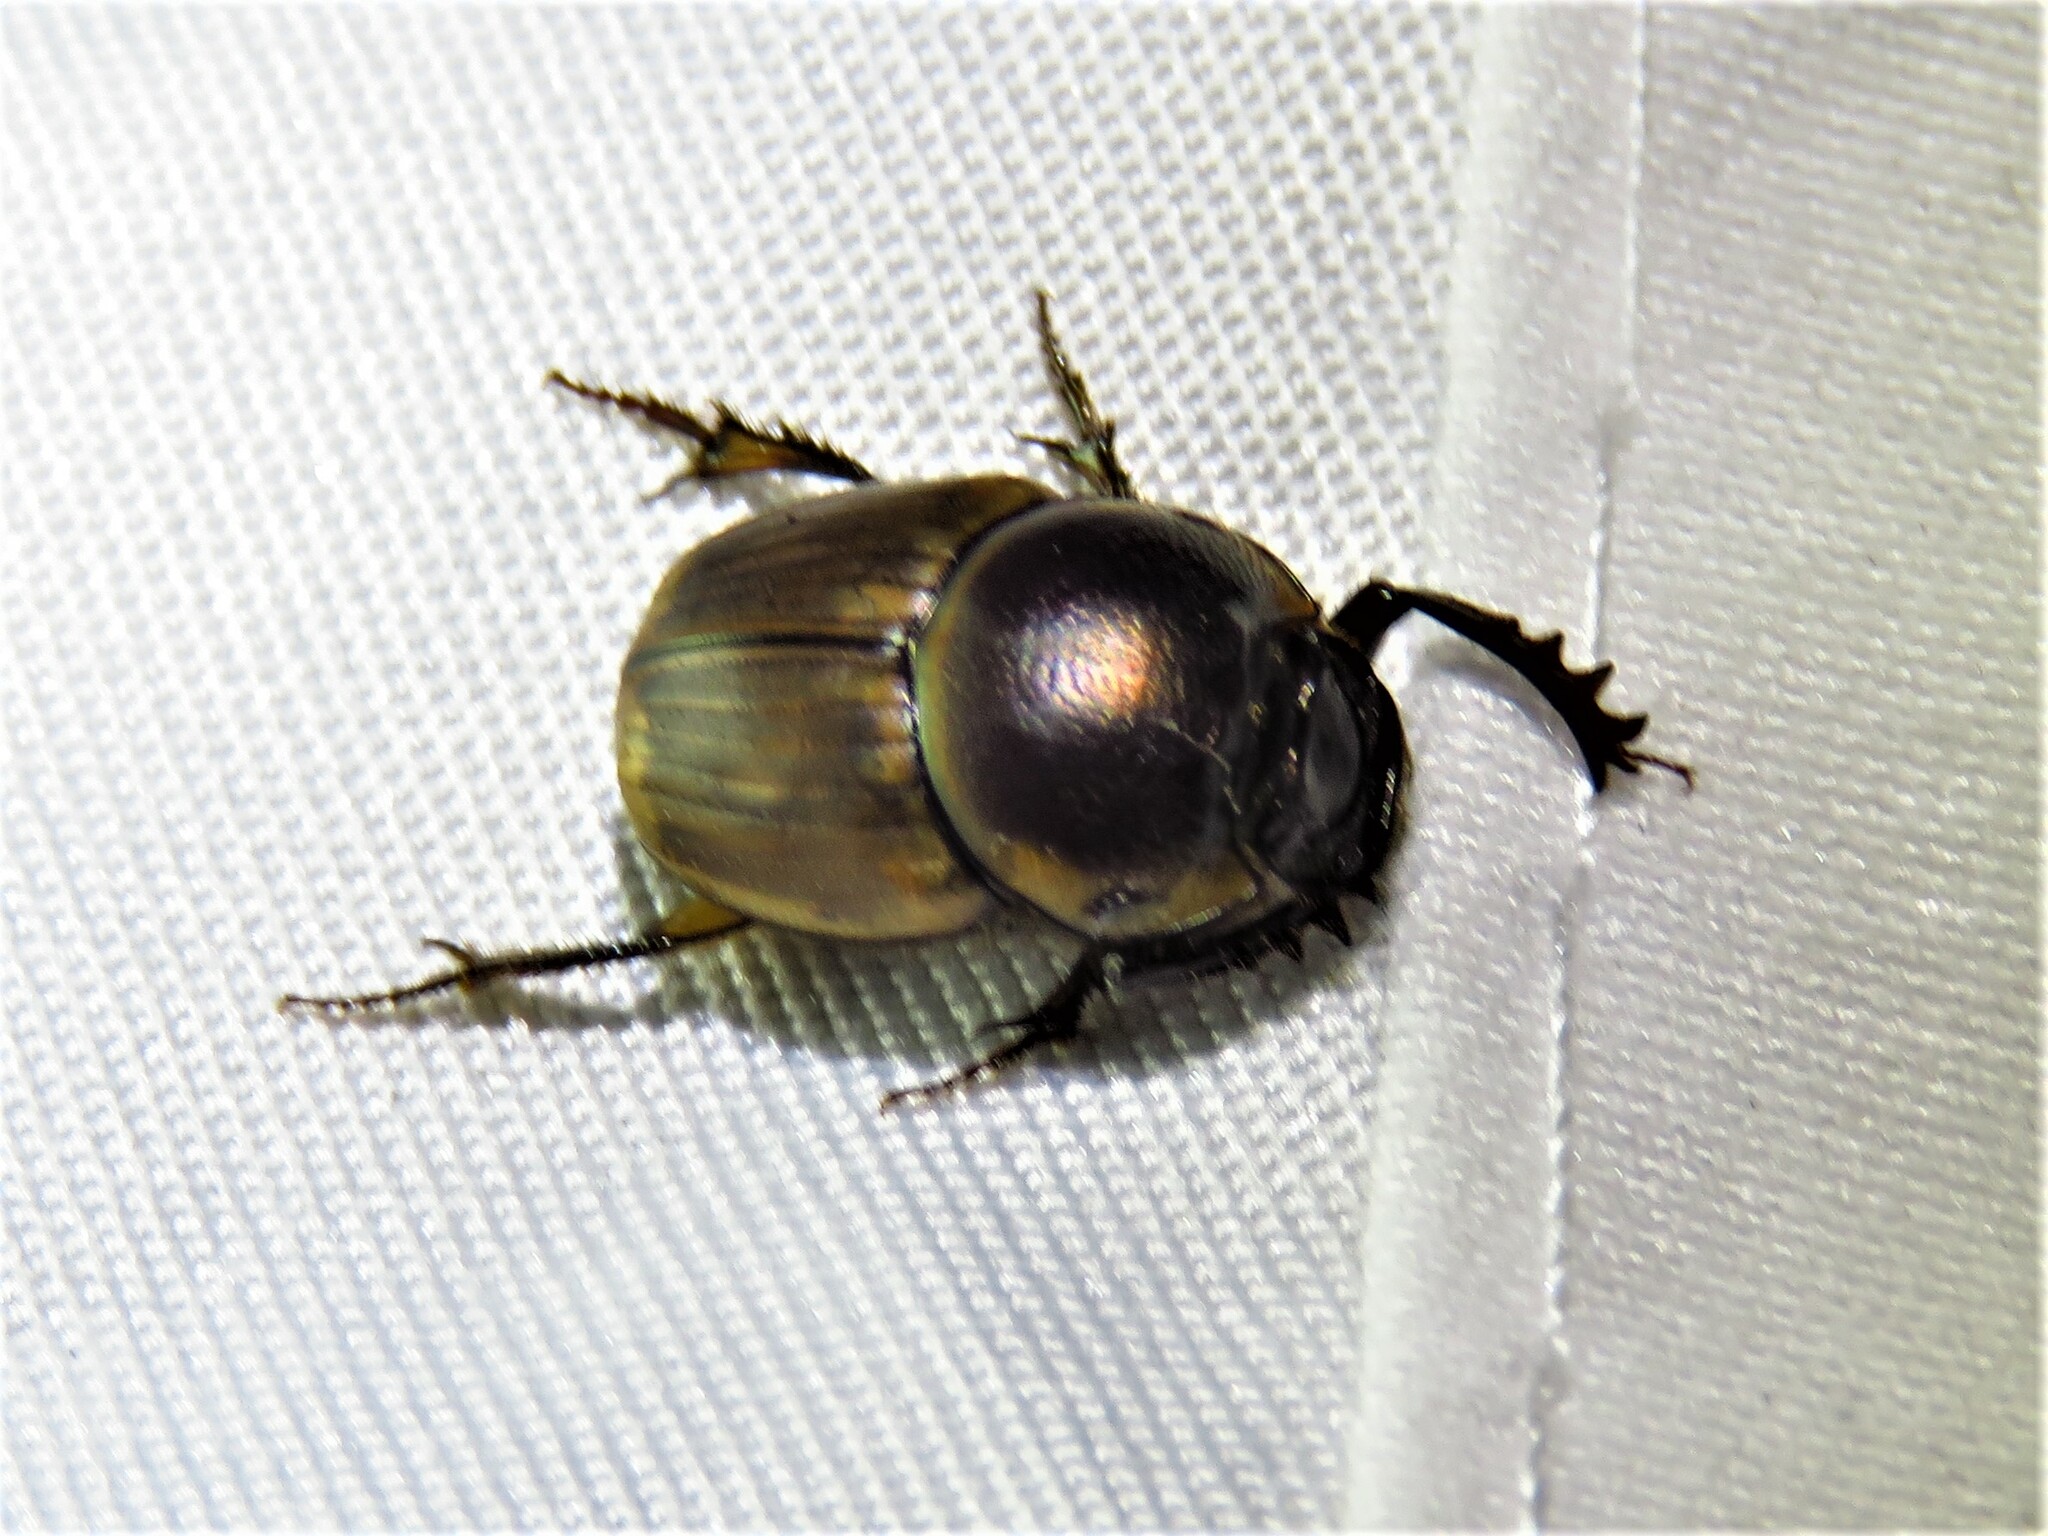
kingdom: Animalia
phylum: Arthropoda
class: Insecta
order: Coleoptera
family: Scarabaeidae
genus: Digitonthophagus
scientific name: Digitonthophagus gazella
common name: Brown dung beetle
